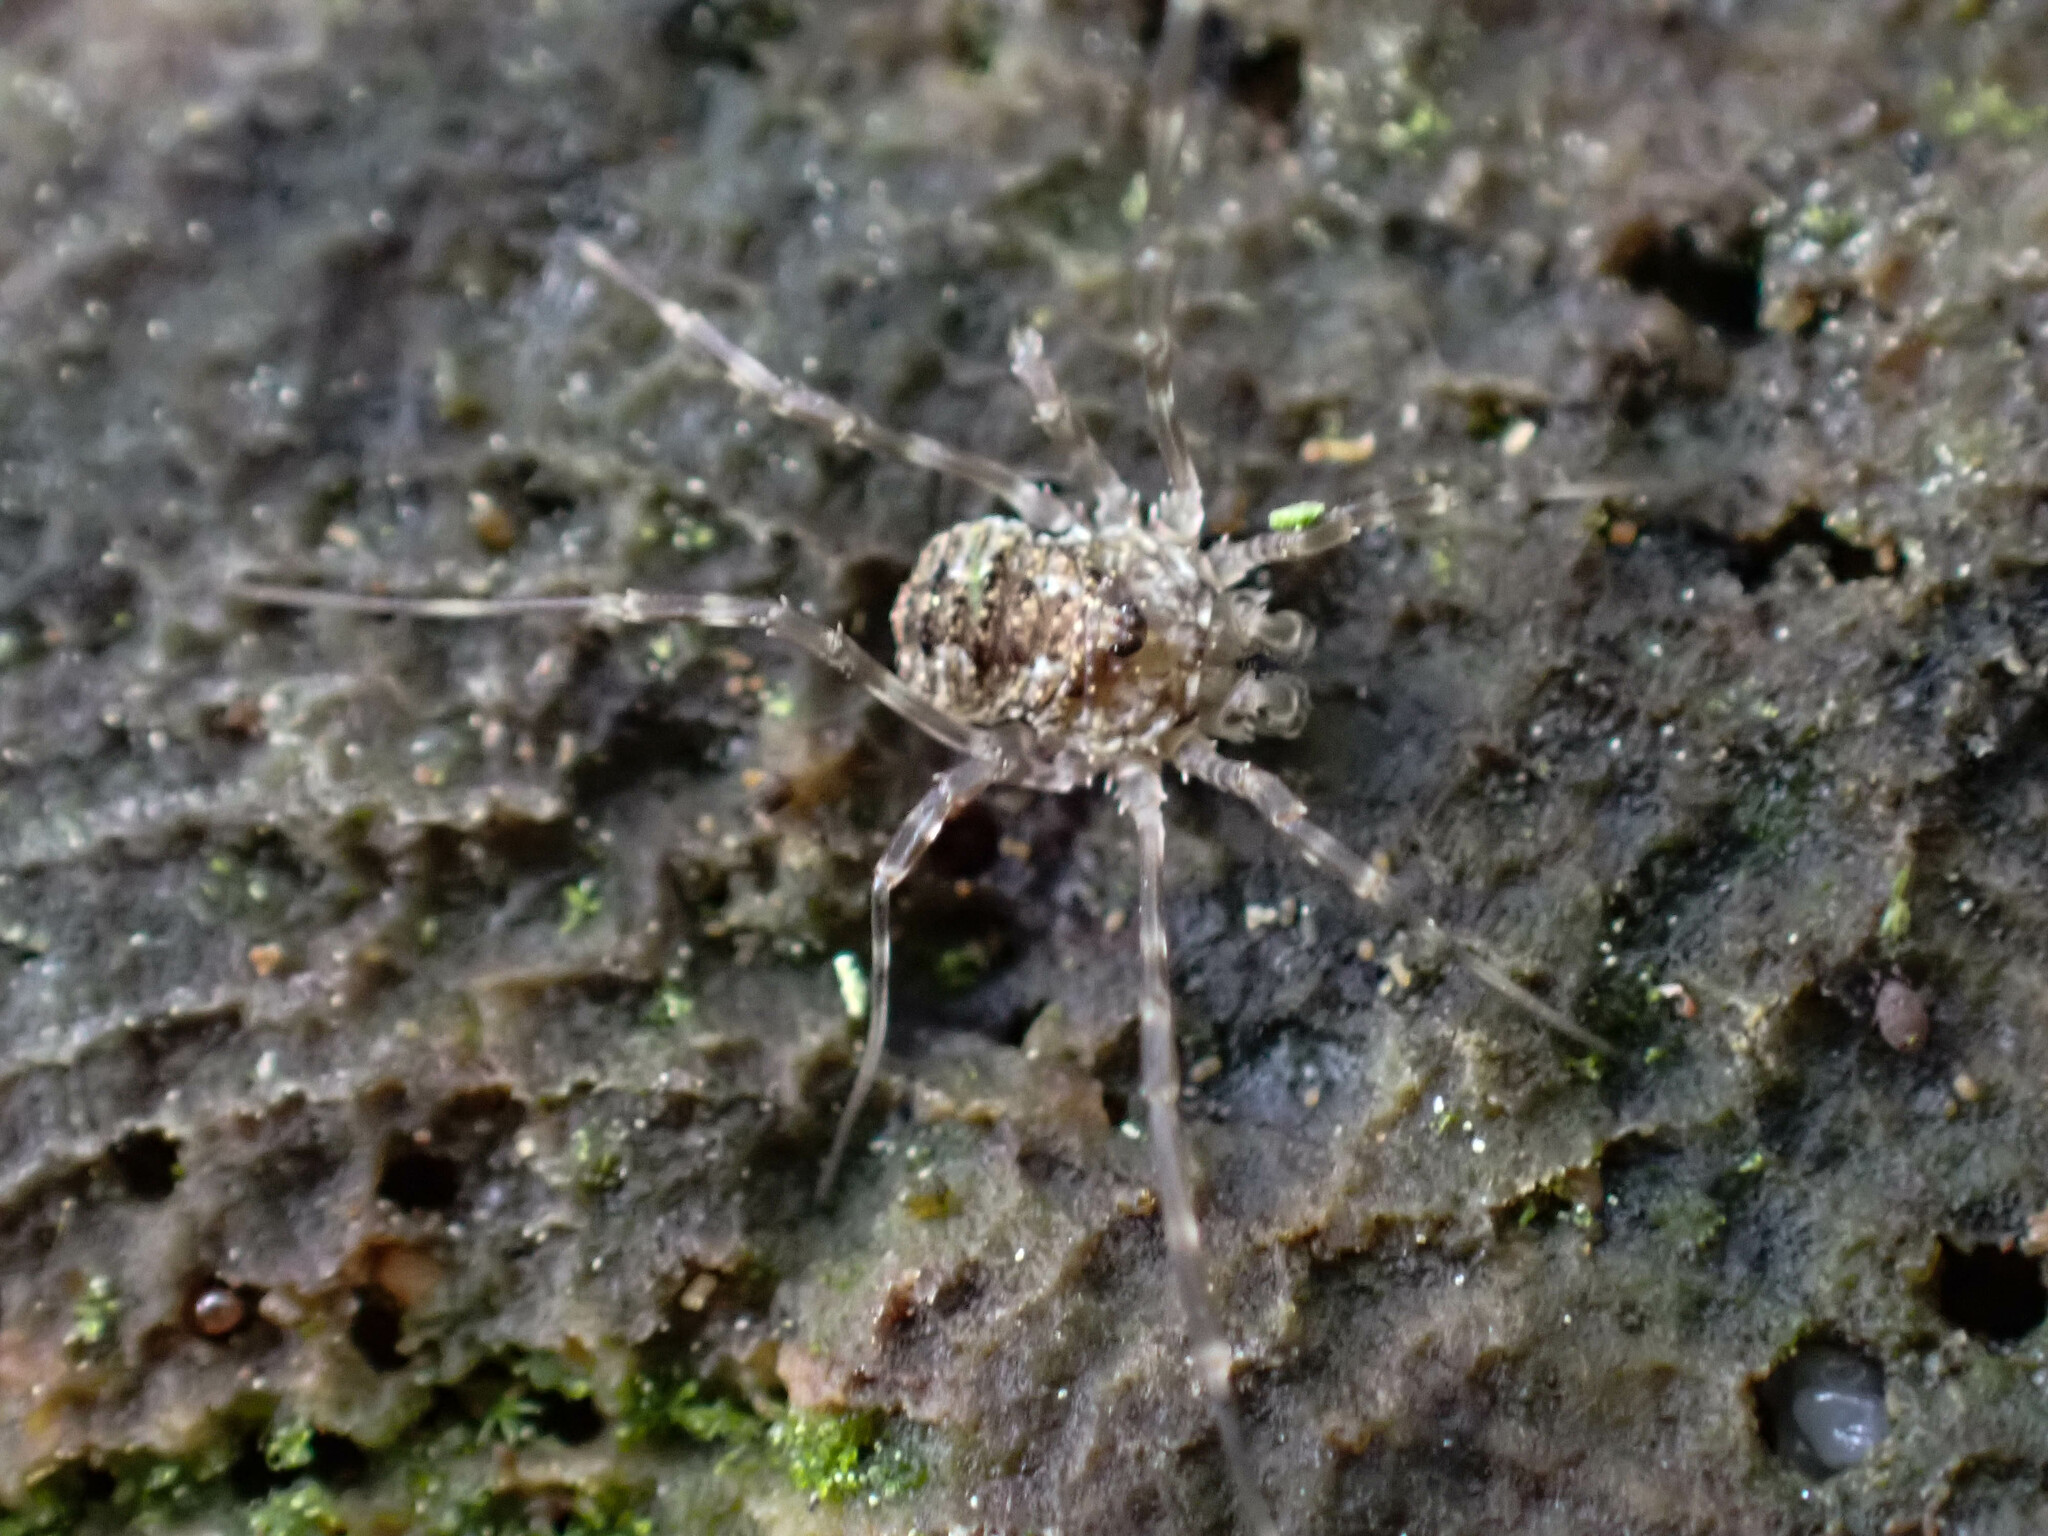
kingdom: Animalia
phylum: Arthropoda
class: Arachnida
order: Opiliones
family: Phalangiidae
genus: Odiellus
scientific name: Odiellus pictus
